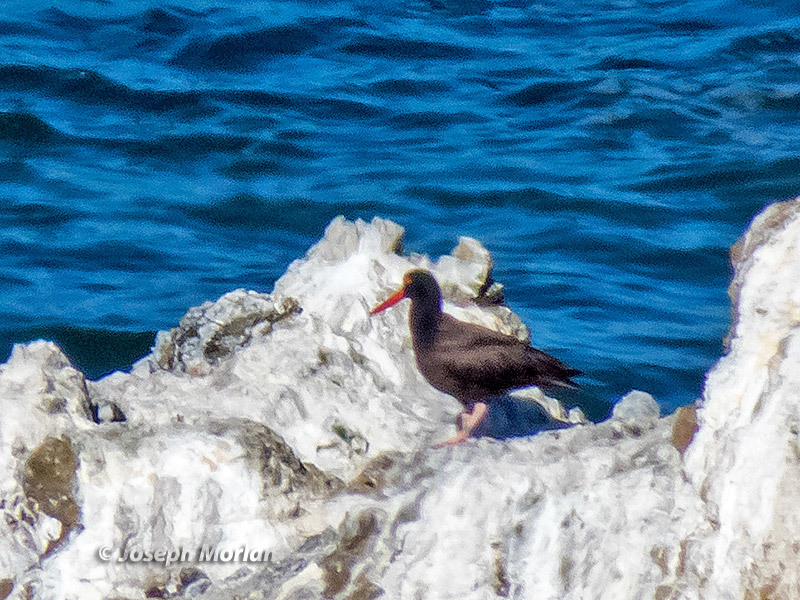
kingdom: Animalia
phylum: Chordata
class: Aves
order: Charadriiformes
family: Haematopodidae
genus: Haematopus
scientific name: Haematopus bachmani
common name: Black oystercatcher
